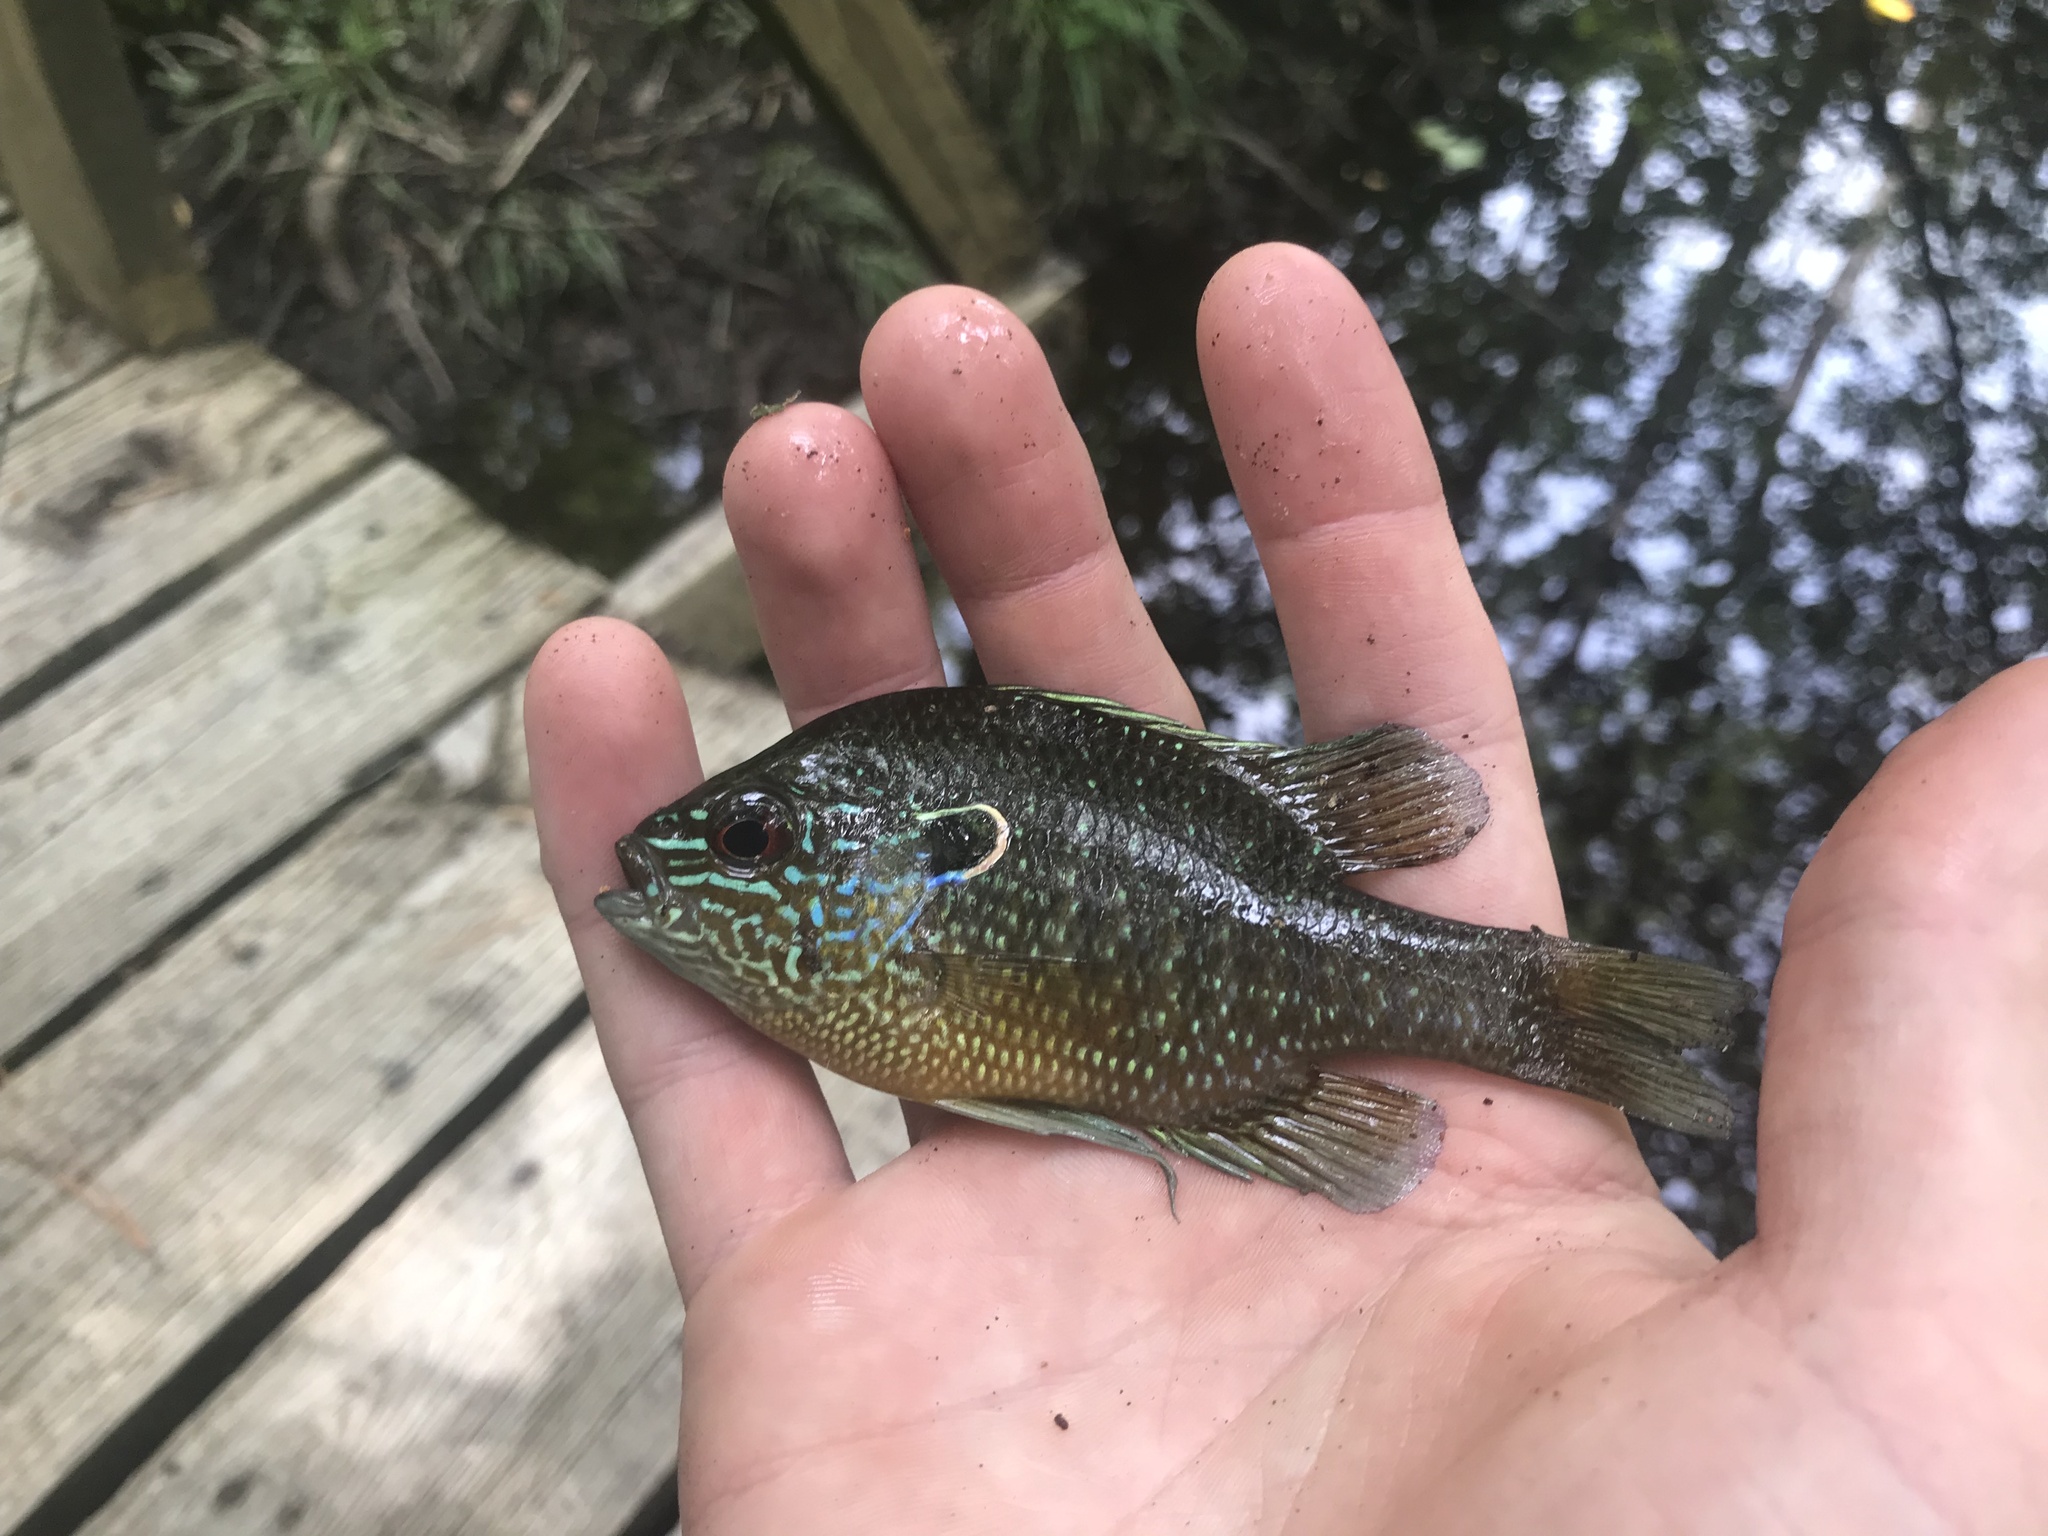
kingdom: Animalia
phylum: Chordata
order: Perciformes
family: Centrarchidae
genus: Lepomis
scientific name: Lepomis marginatus
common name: Dollar sunfish
